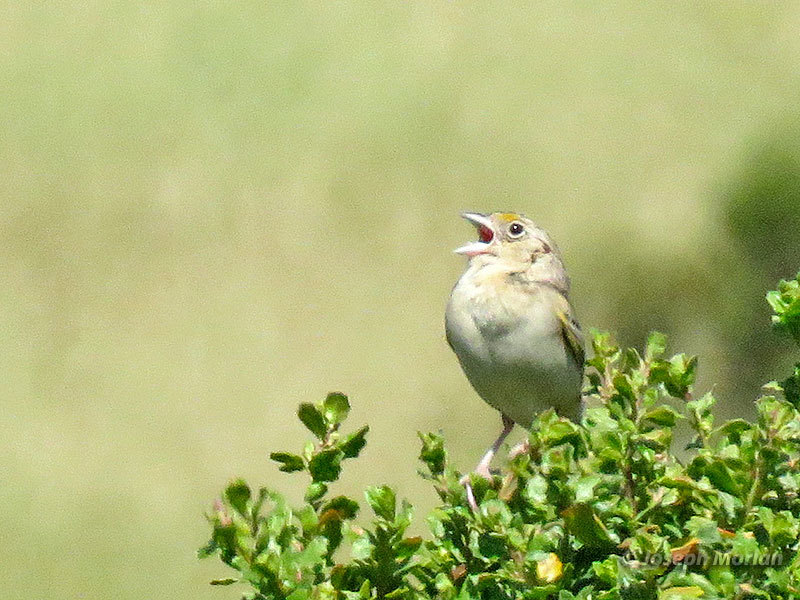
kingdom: Animalia
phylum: Chordata
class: Aves
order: Passeriformes
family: Passerellidae
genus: Ammodramus
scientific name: Ammodramus savannarum
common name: Grasshopper sparrow
